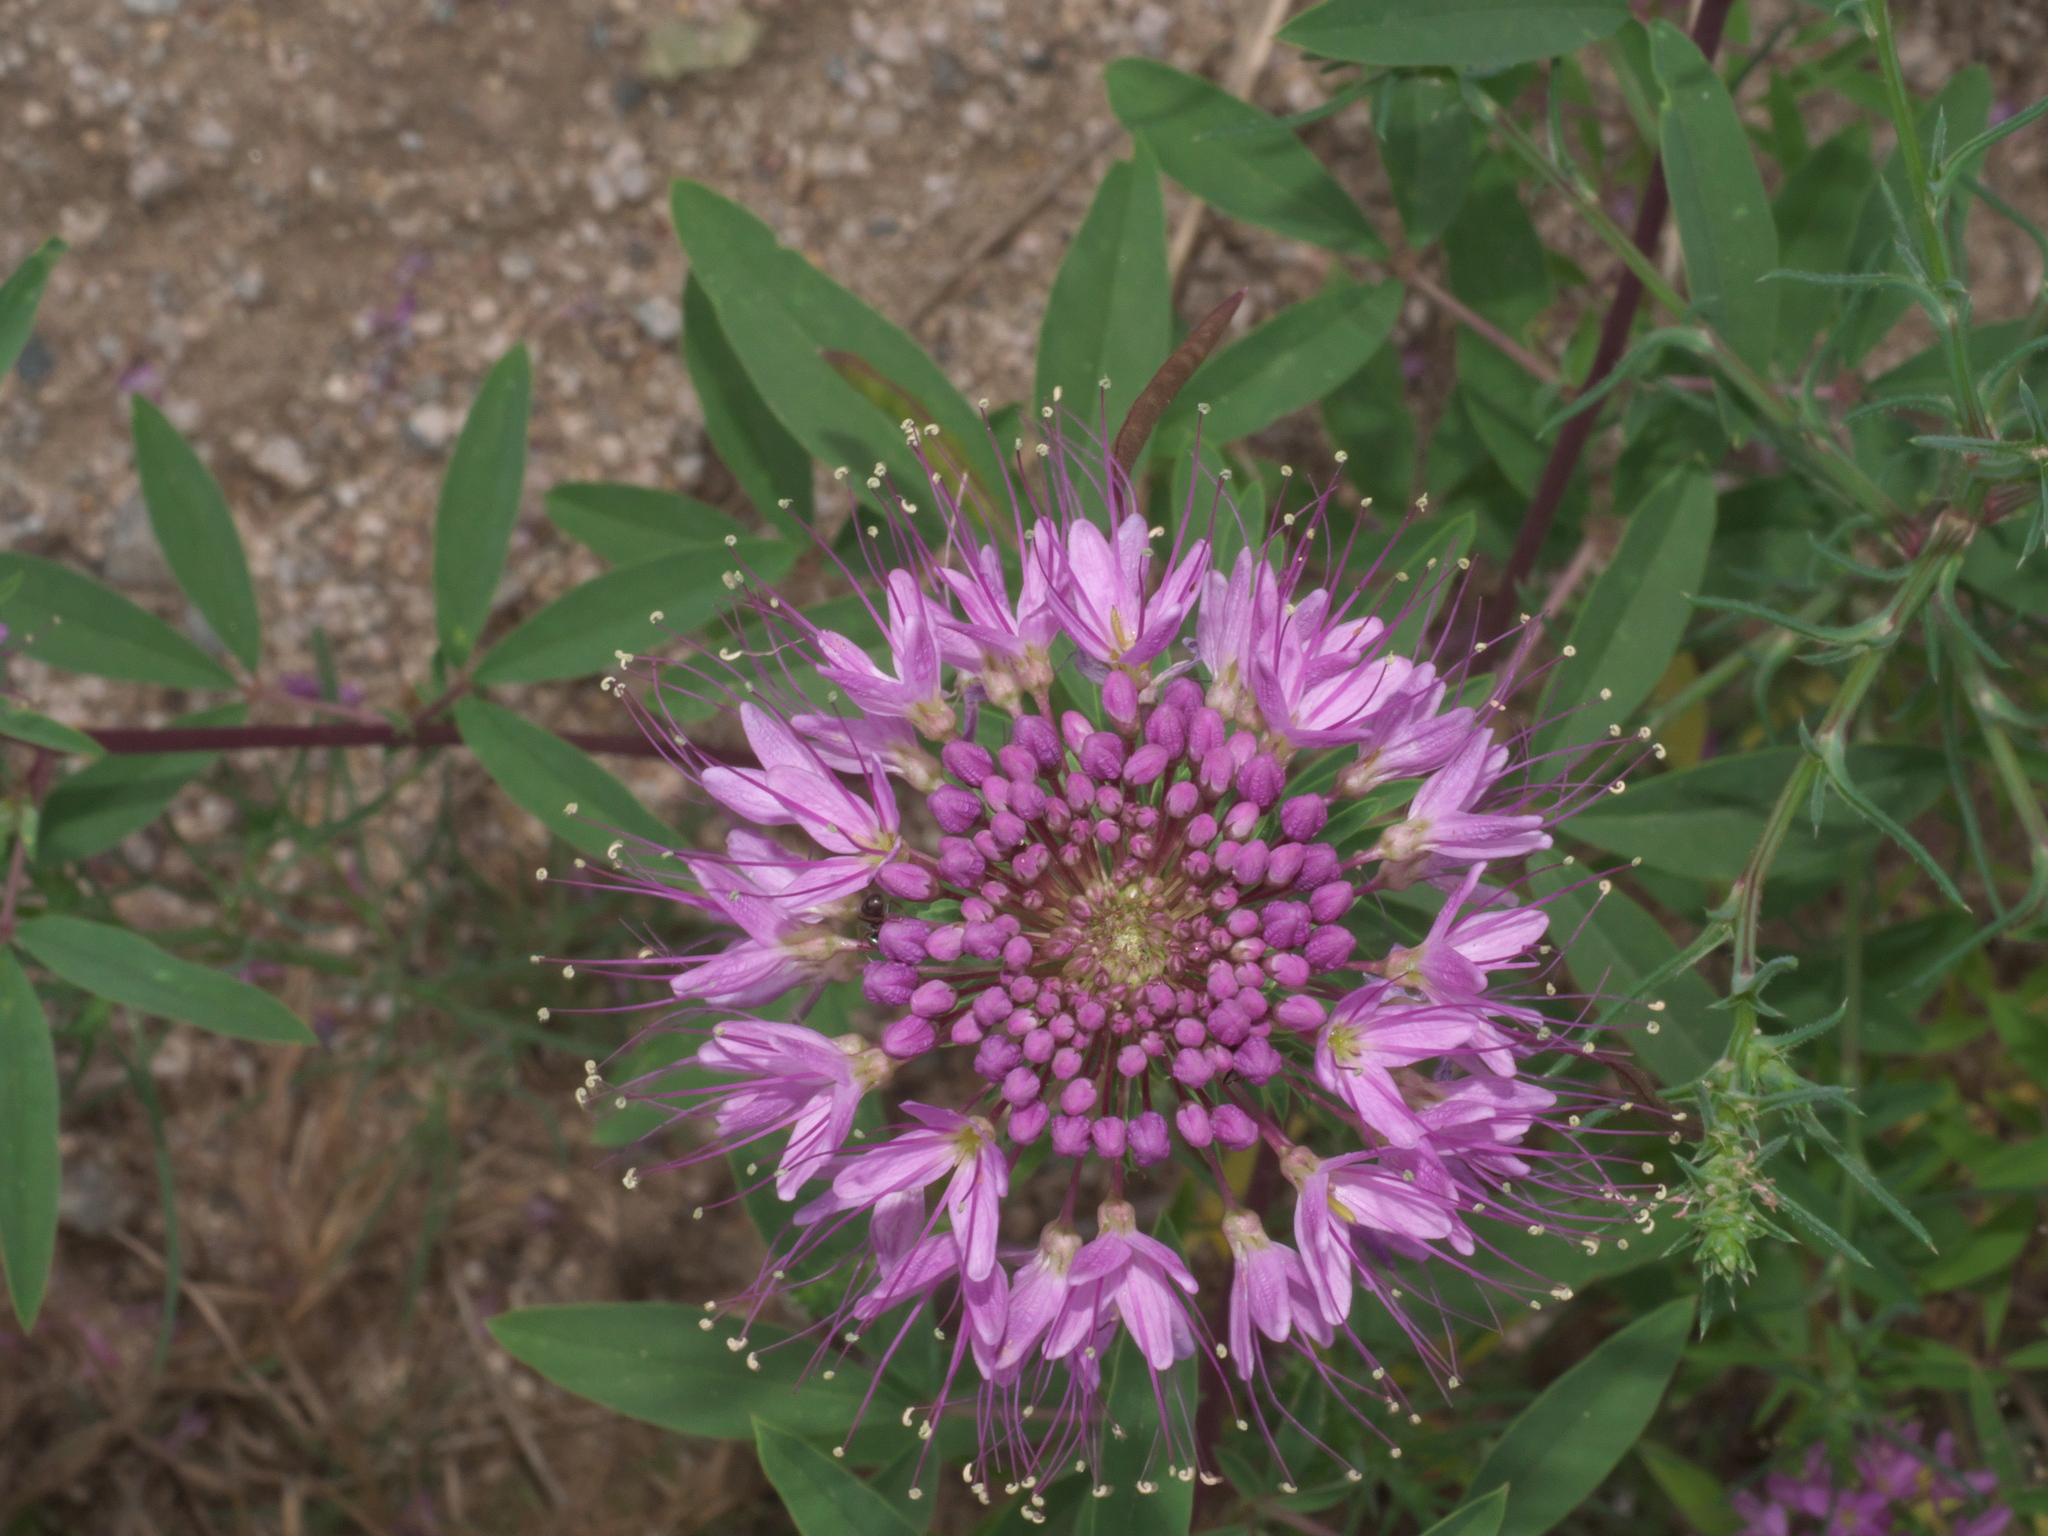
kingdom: Plantae
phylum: Tracheophyta
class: Magnoliopsida
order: Brassicales
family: Cleomaceae
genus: Cleomella
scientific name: Cleomella serrulata
